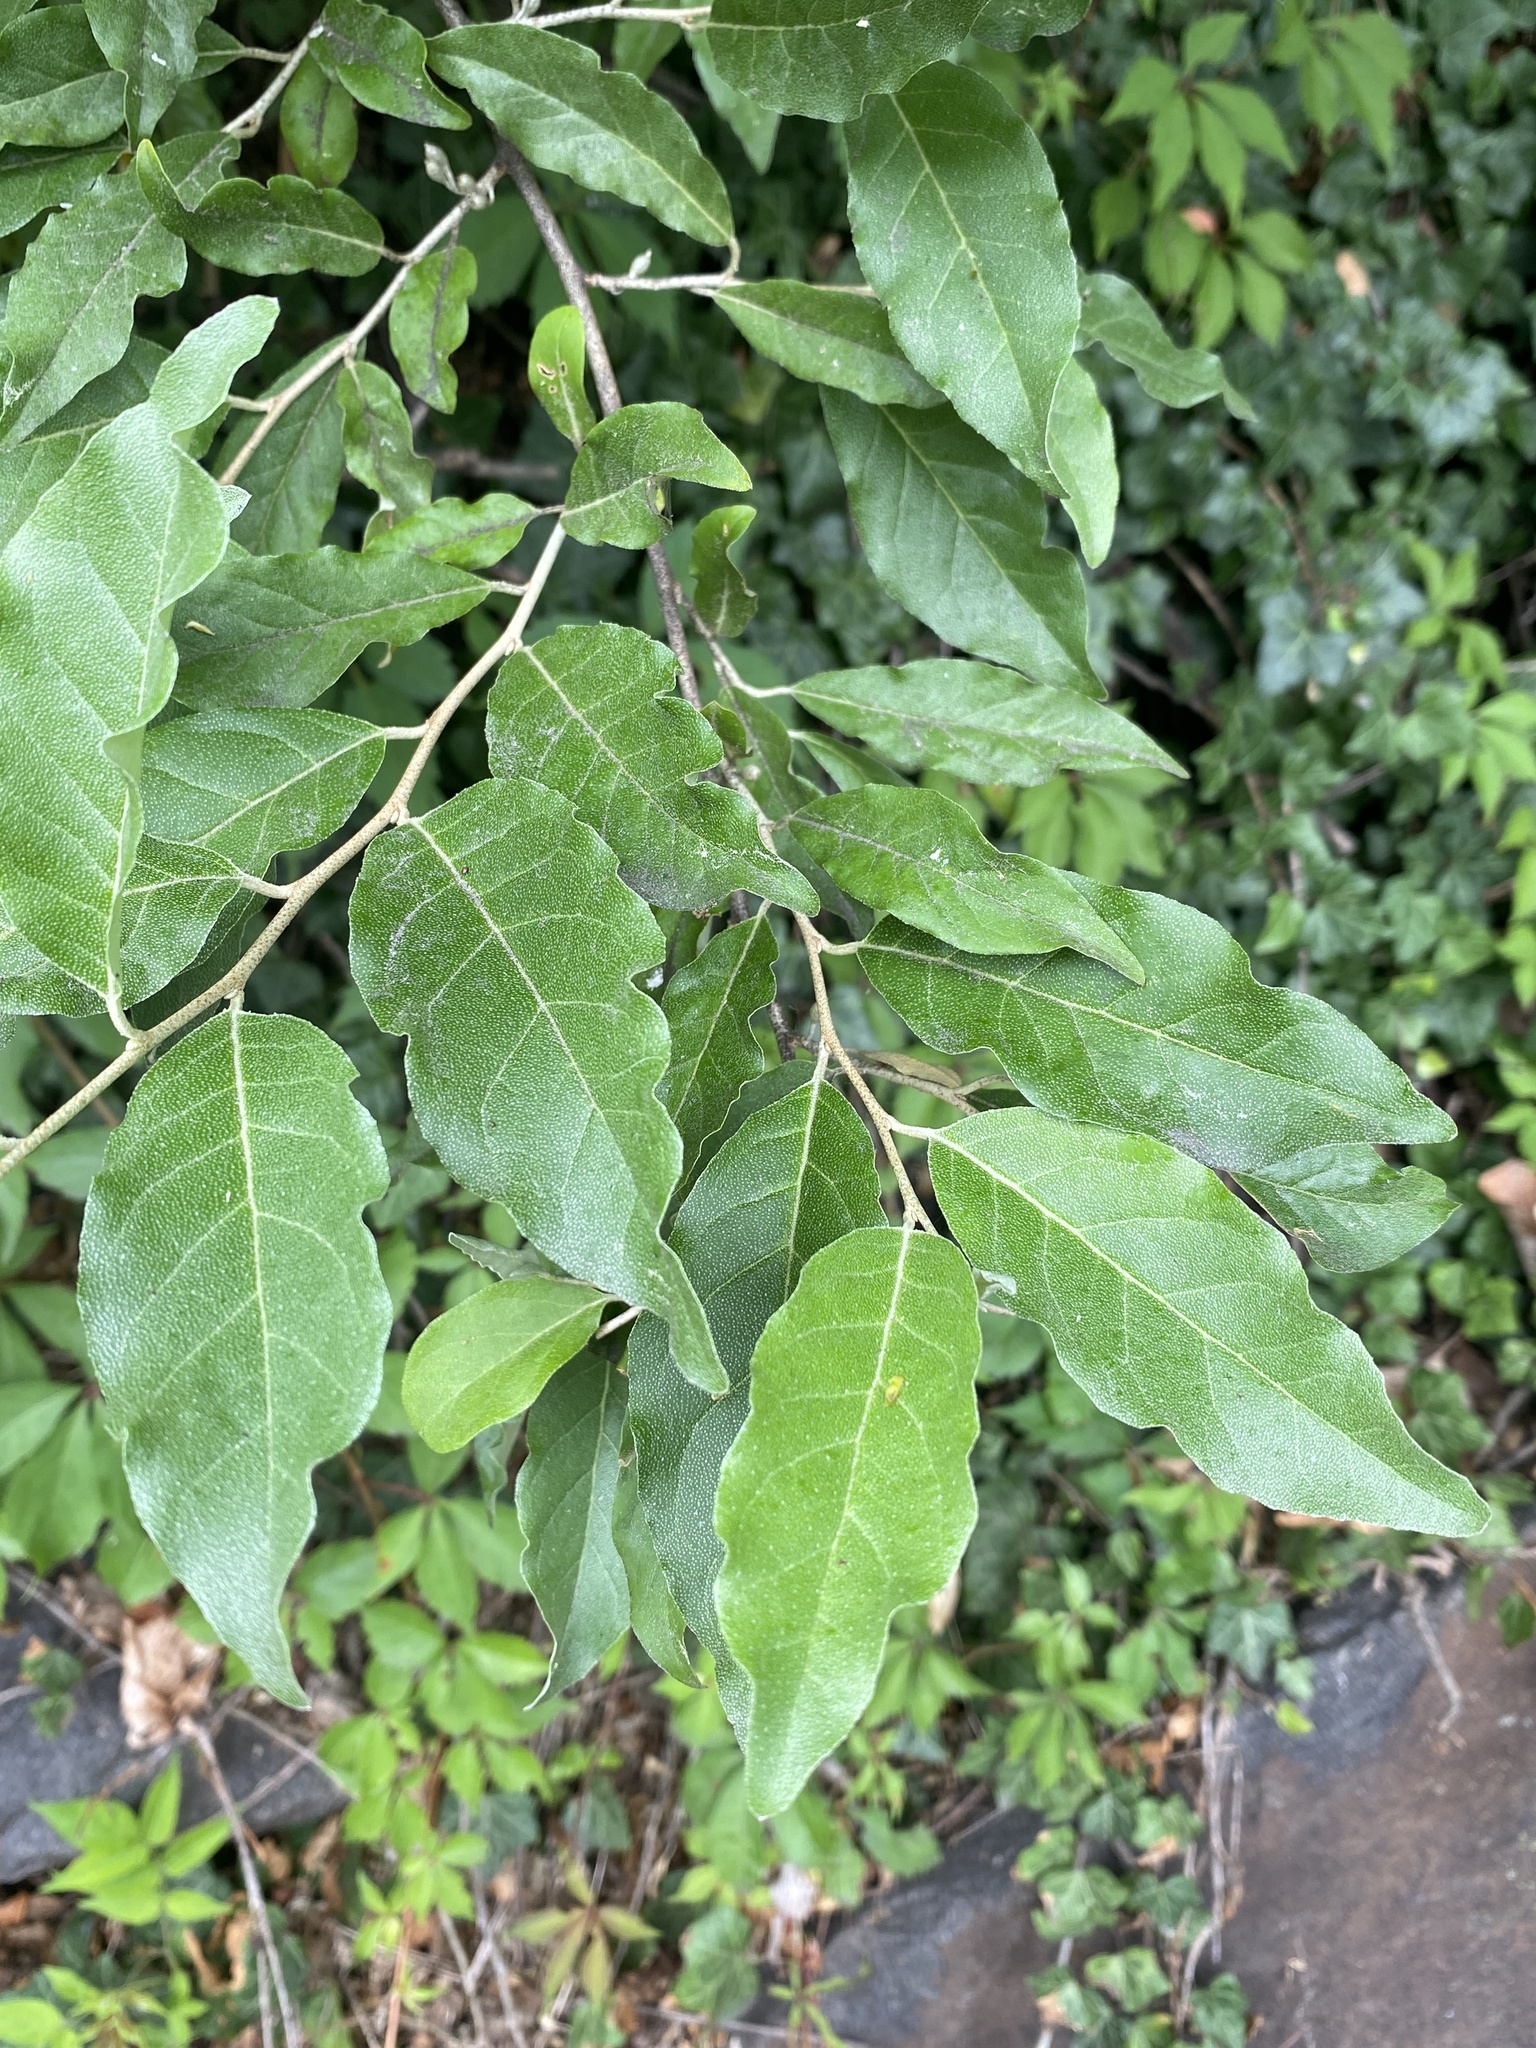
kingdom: Plantae
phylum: Tracheophyta
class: Magnoliopsida
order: Rosales
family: Elaeagnaceae
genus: Elaeagnus
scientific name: Elaeagnus umbellata
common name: Autumn olive
